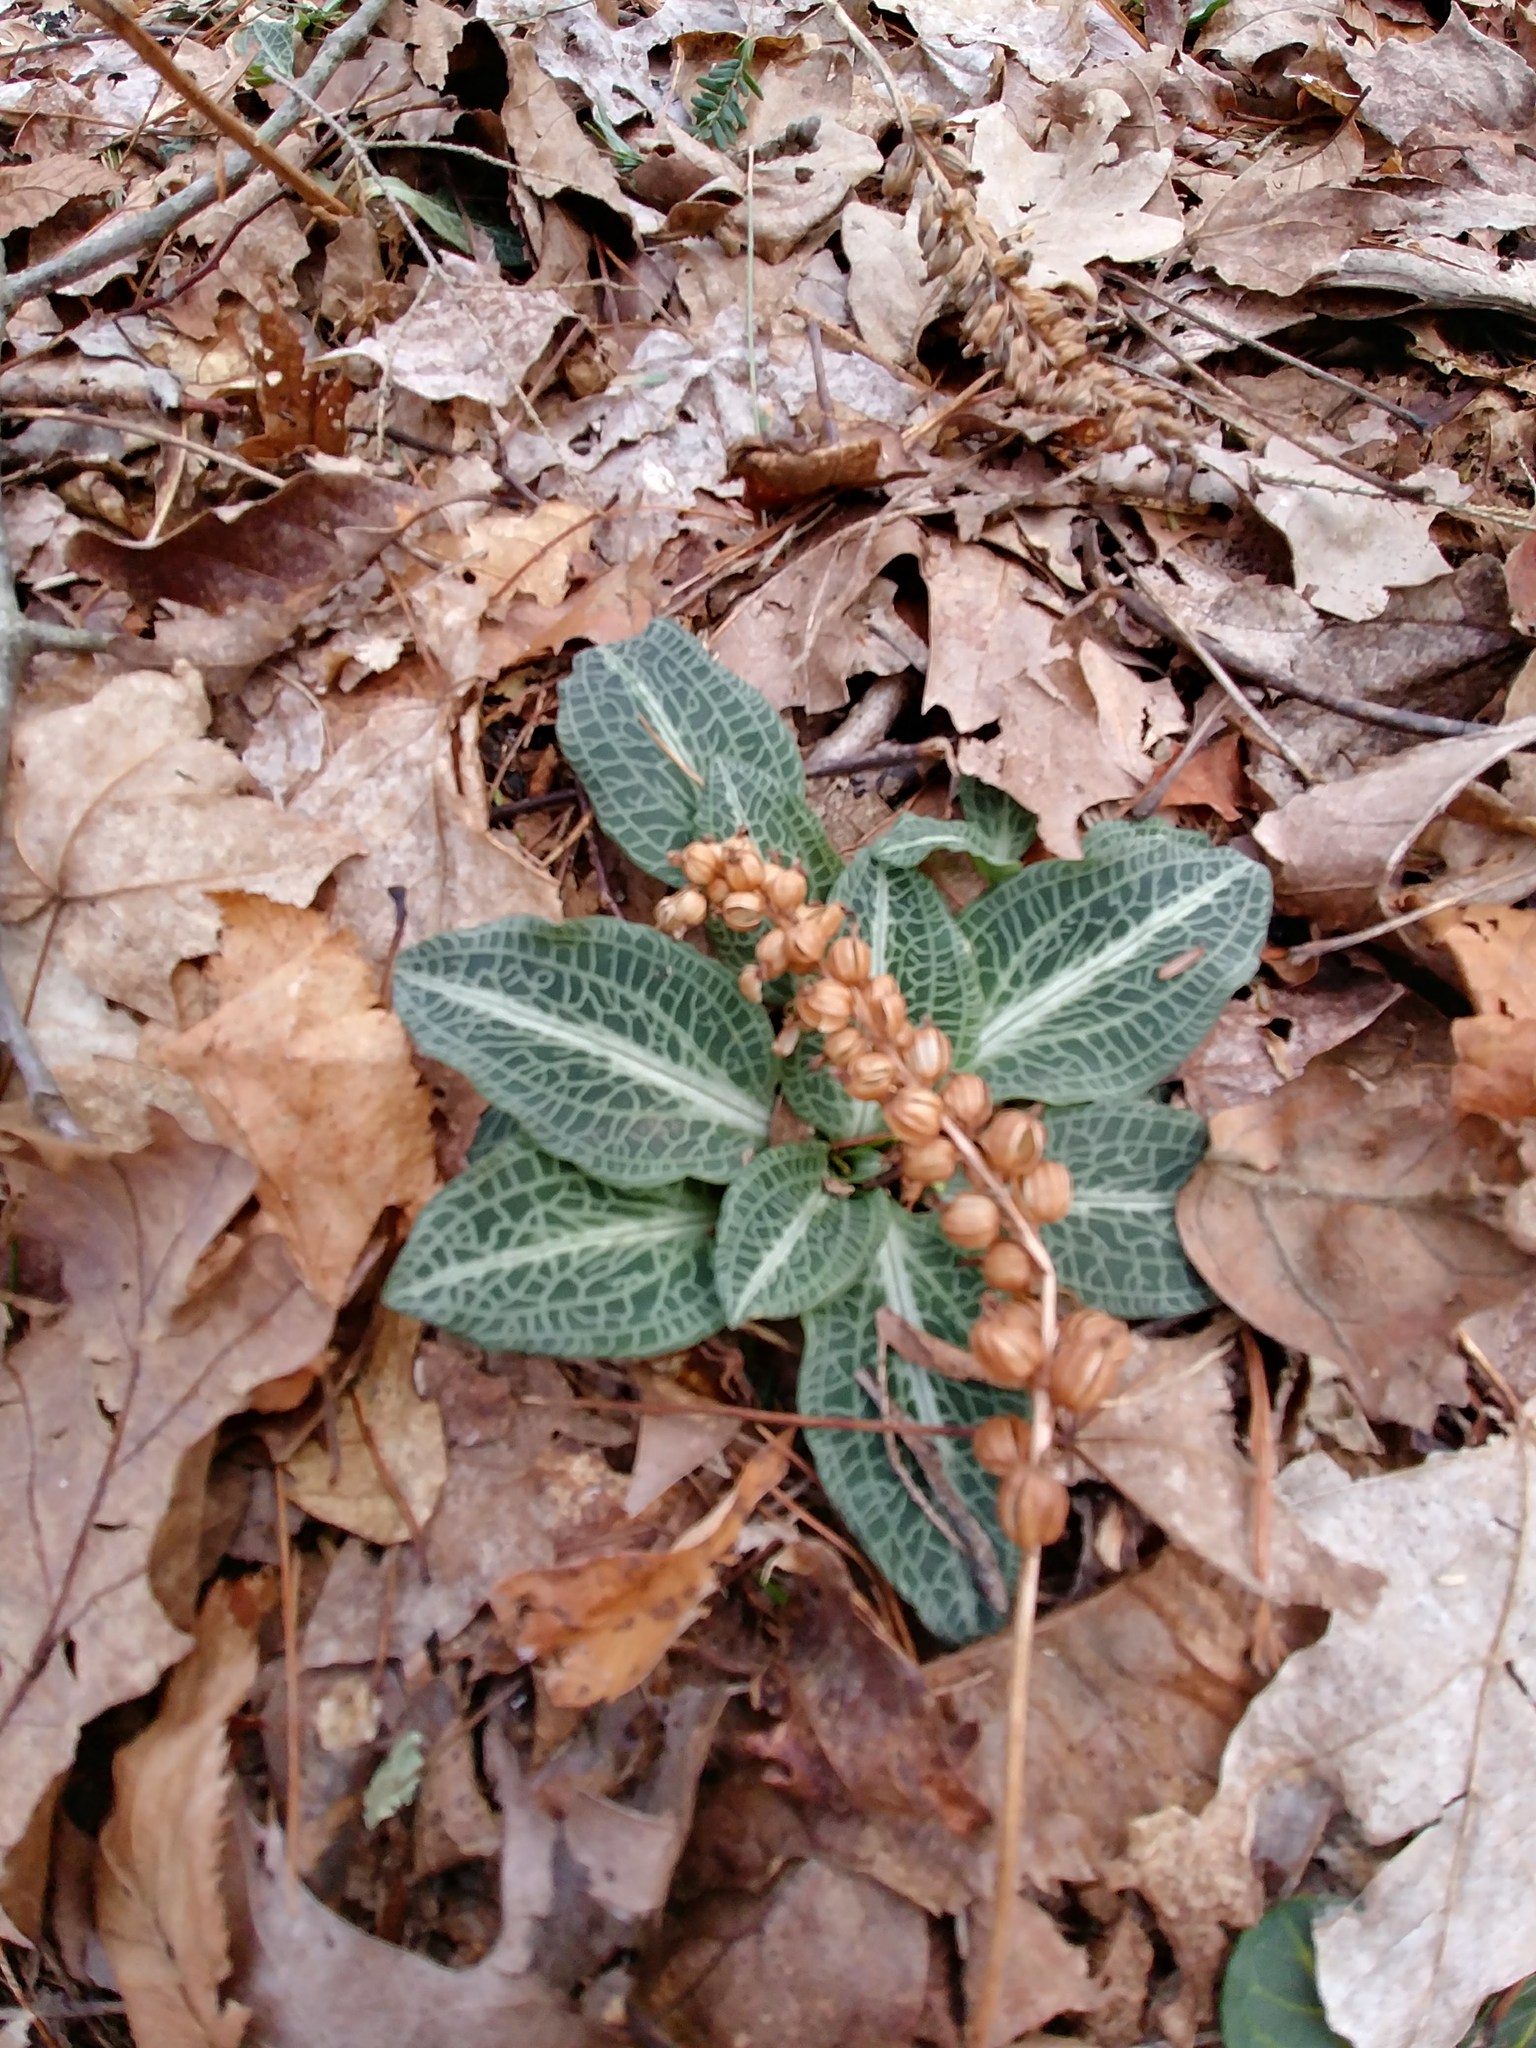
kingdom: Plantae
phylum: Tracheophyta
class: Liliopsida
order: Asparagales
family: Orchidaceae
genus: Goodyera
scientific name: Goodyera pubescens
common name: Downy rattlesnake-plantain
